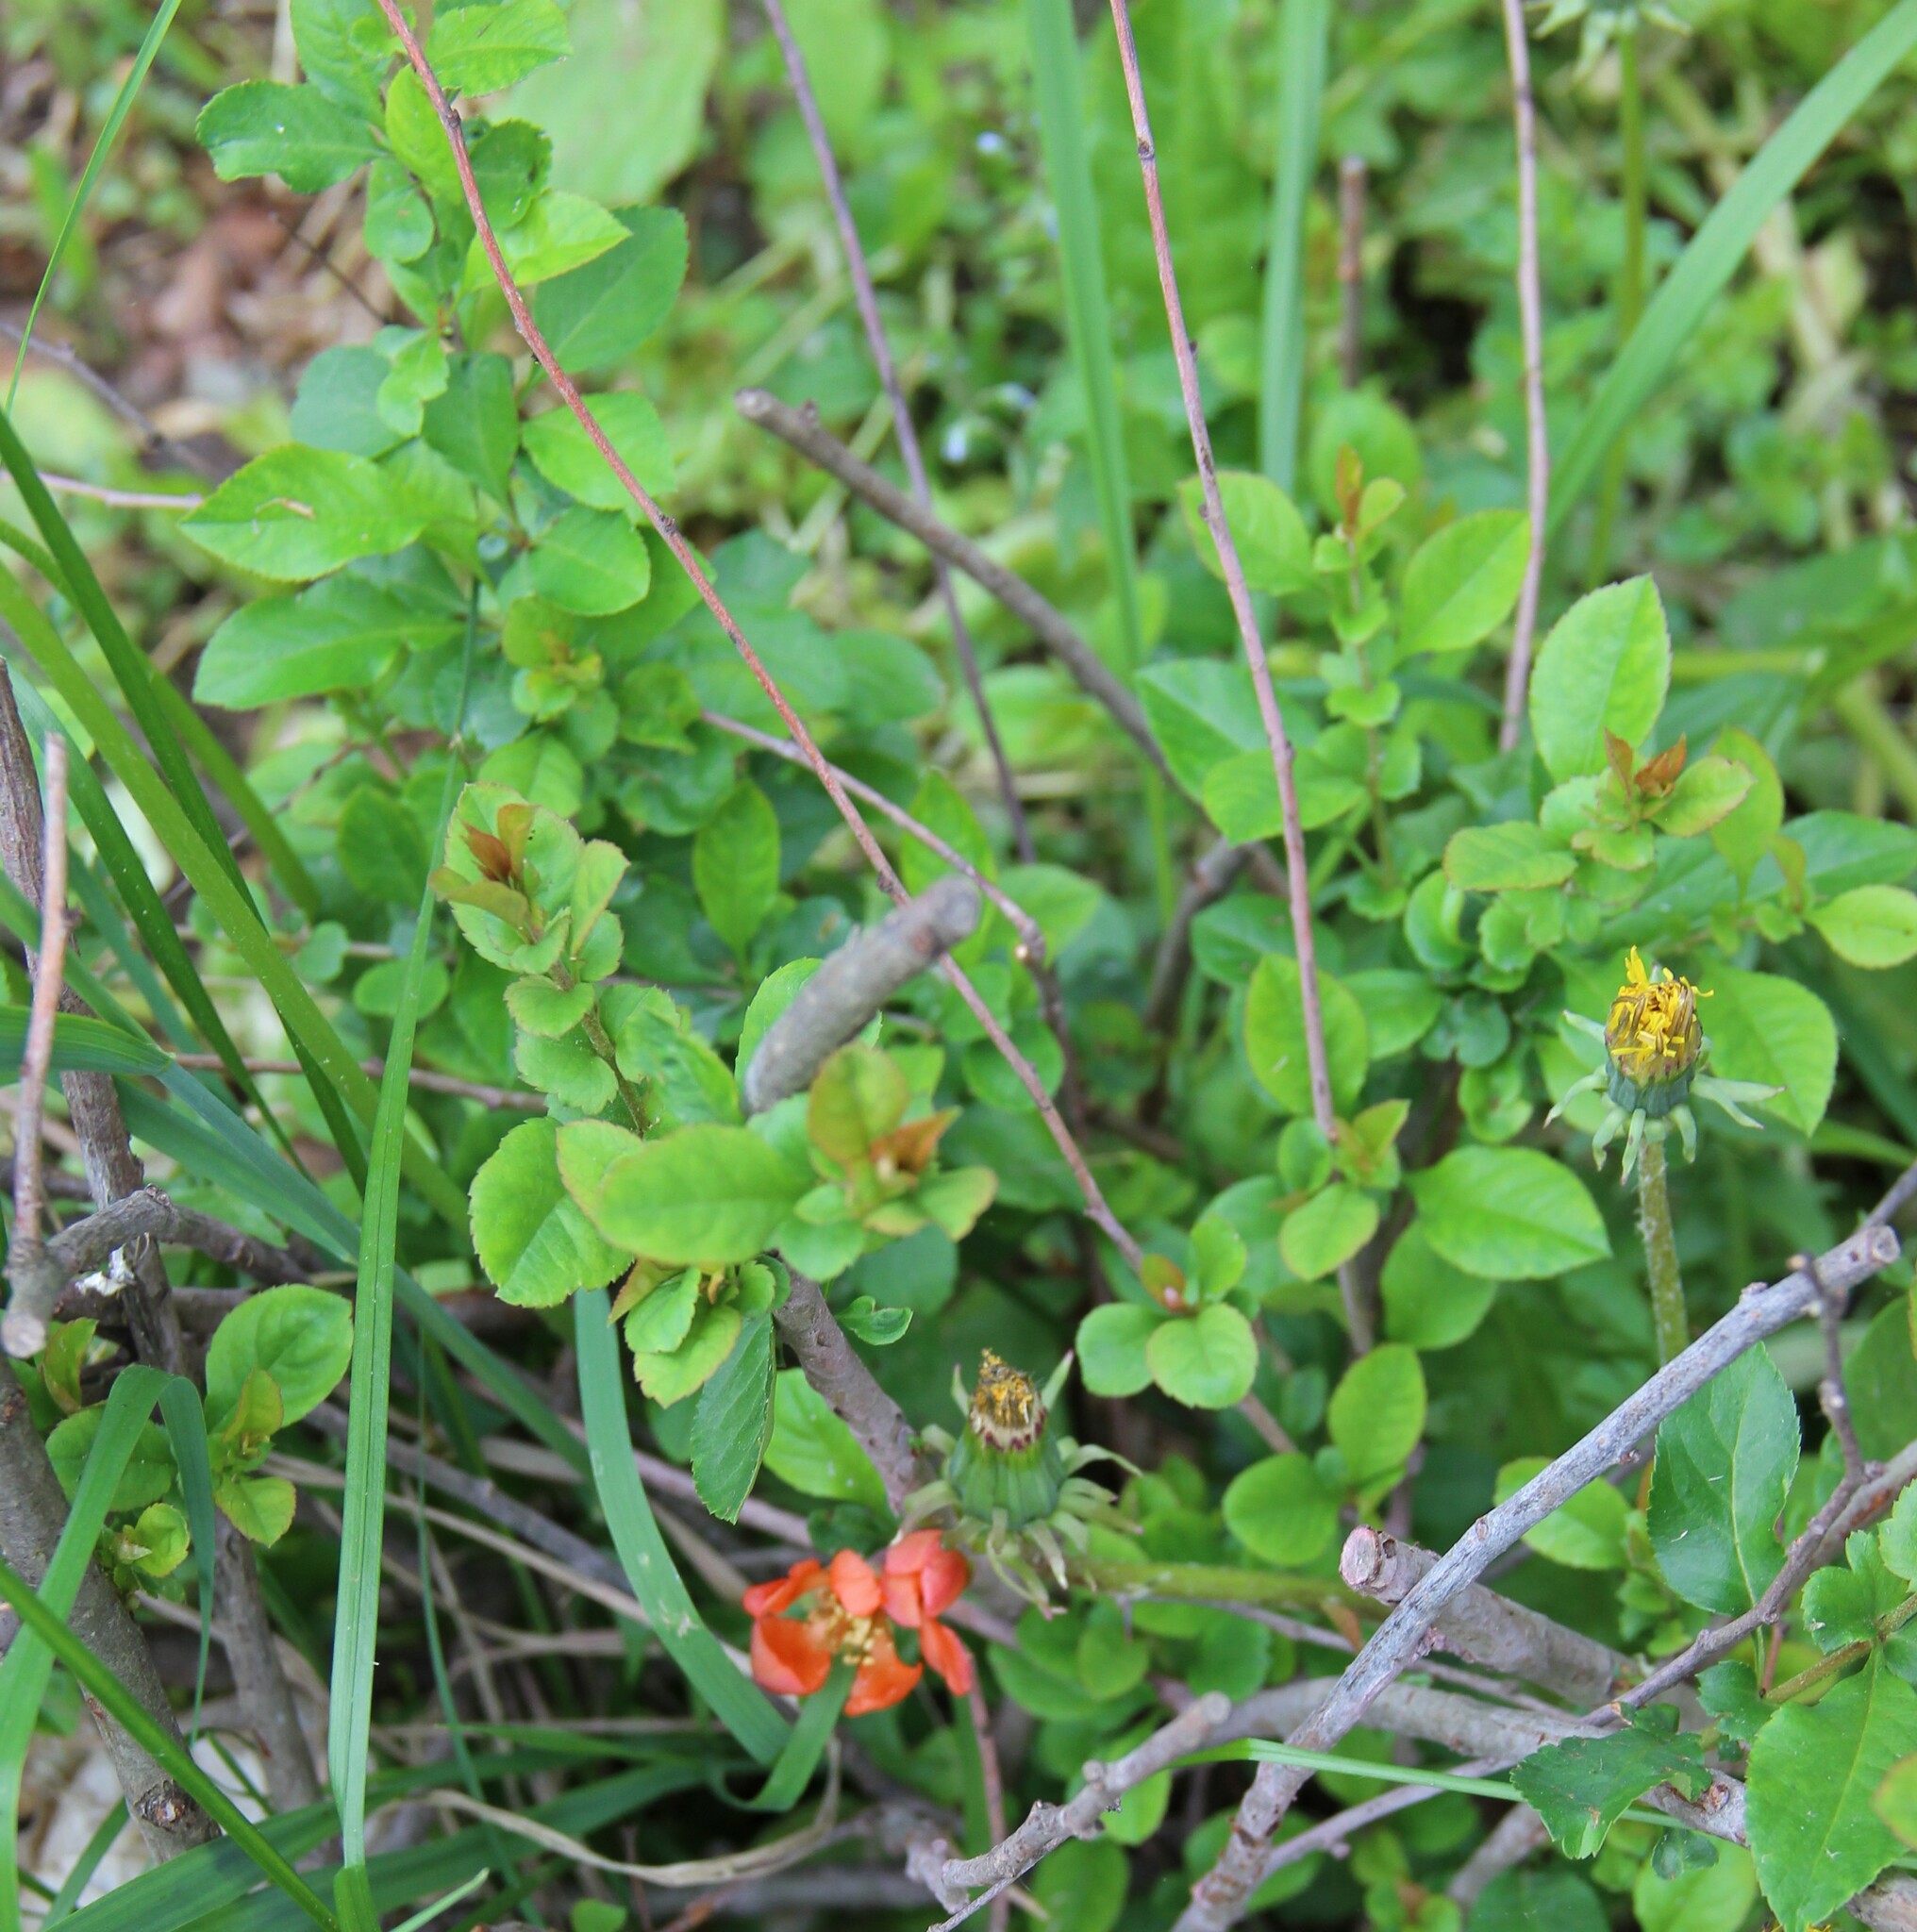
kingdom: Plantae
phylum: Tracheophyta
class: Magnoliopsida
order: Rosales
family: Rosaceae
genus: Chaenomeles
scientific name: Chaenomeles japonica
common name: Japanese quince
